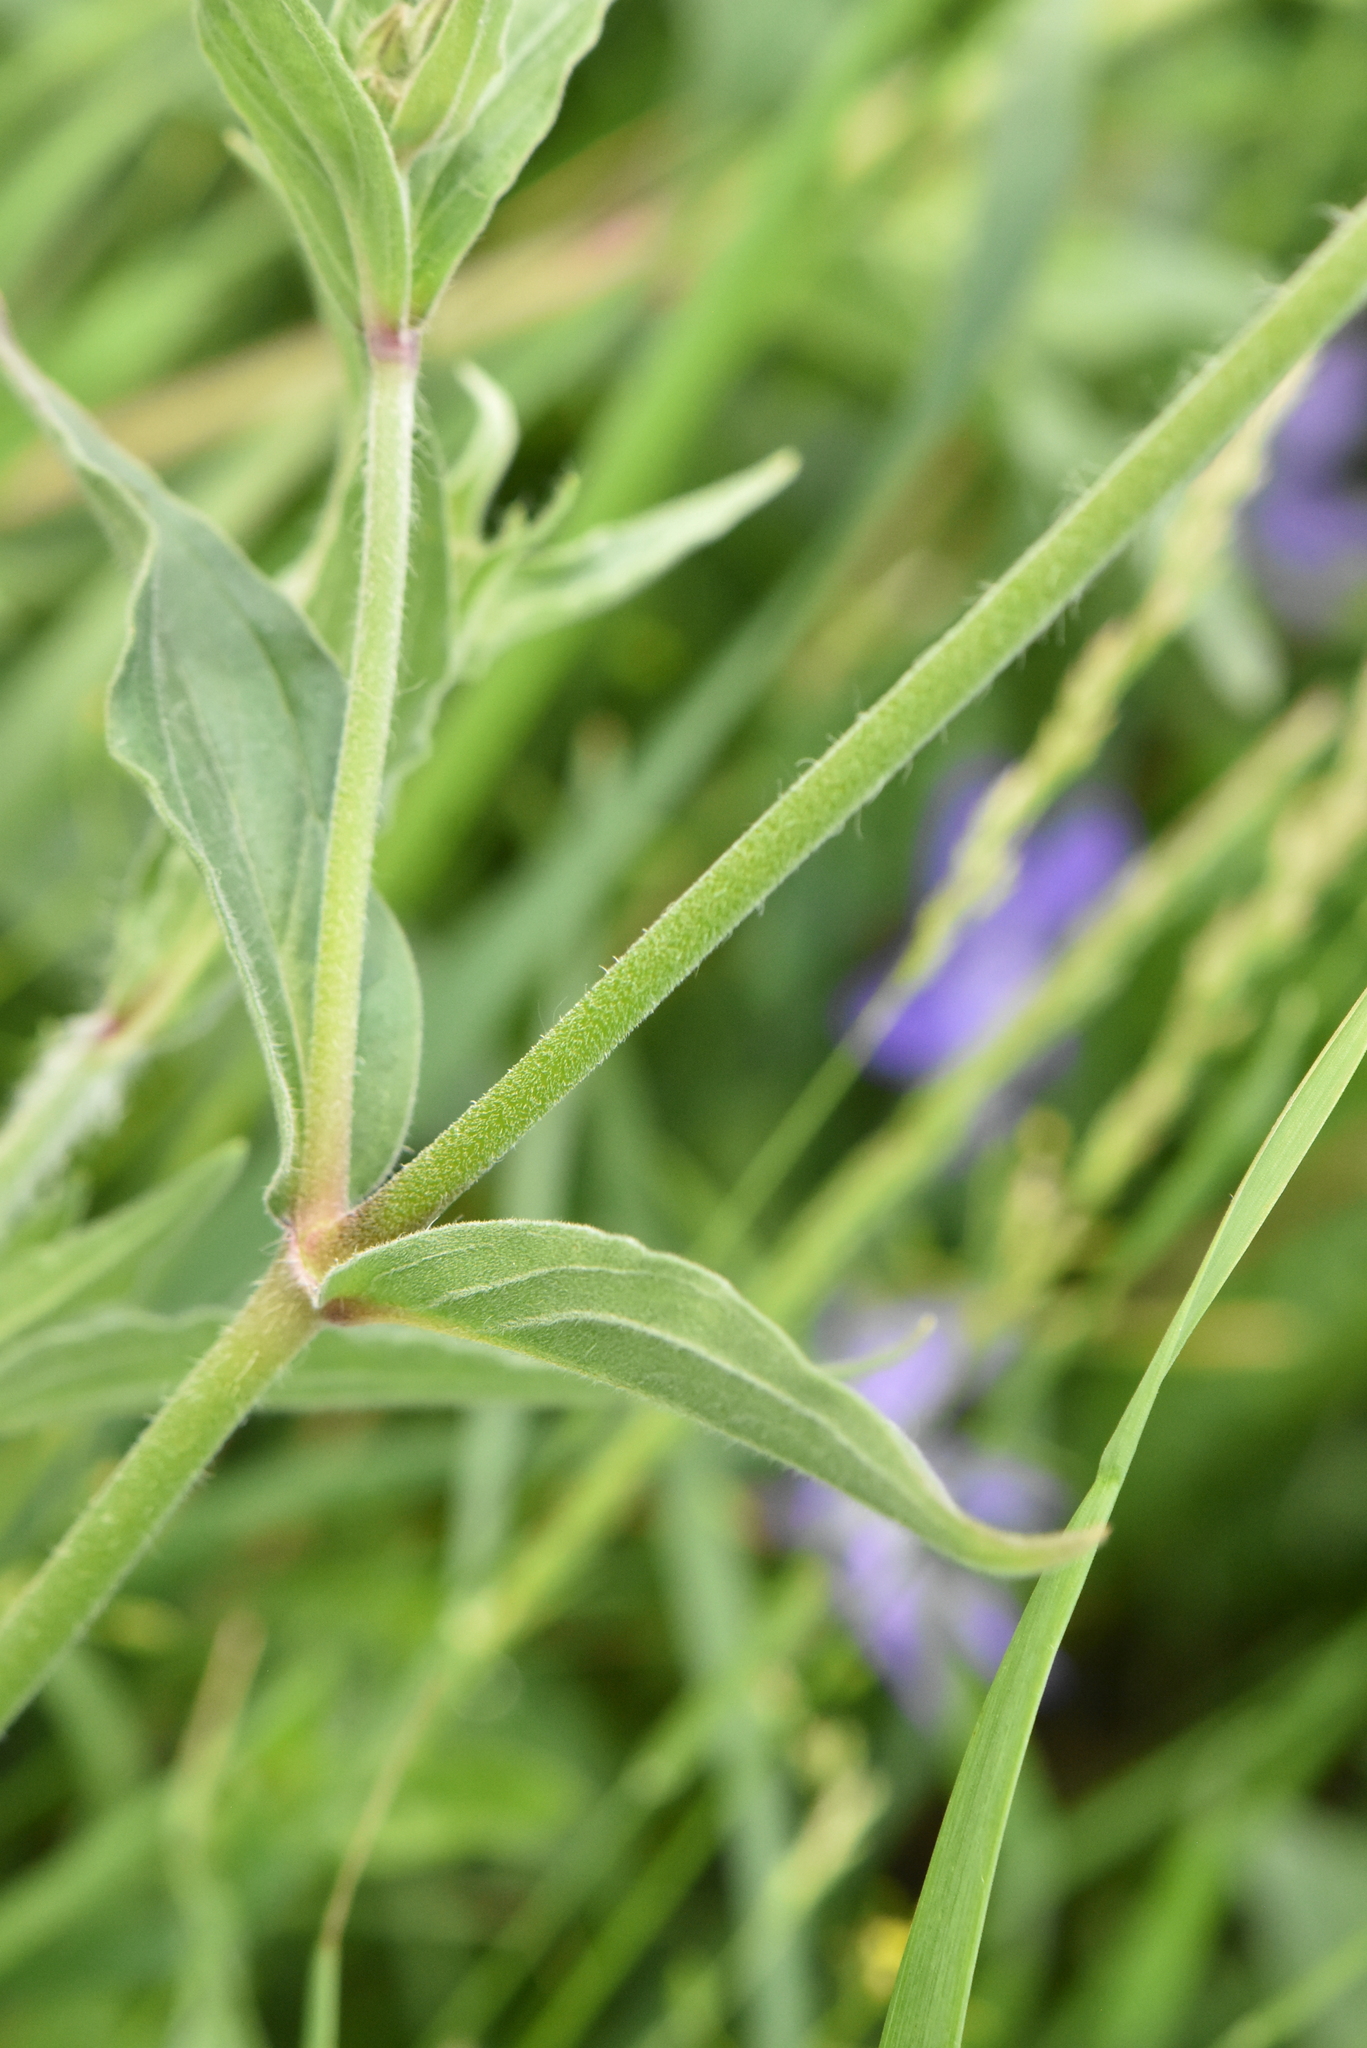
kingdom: Plantae
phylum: Tracheophyta
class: Magnoliopsida
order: Caryophyllales
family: Caryophyllaceae
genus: Silene
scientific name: Silene latifolia
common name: White campion
